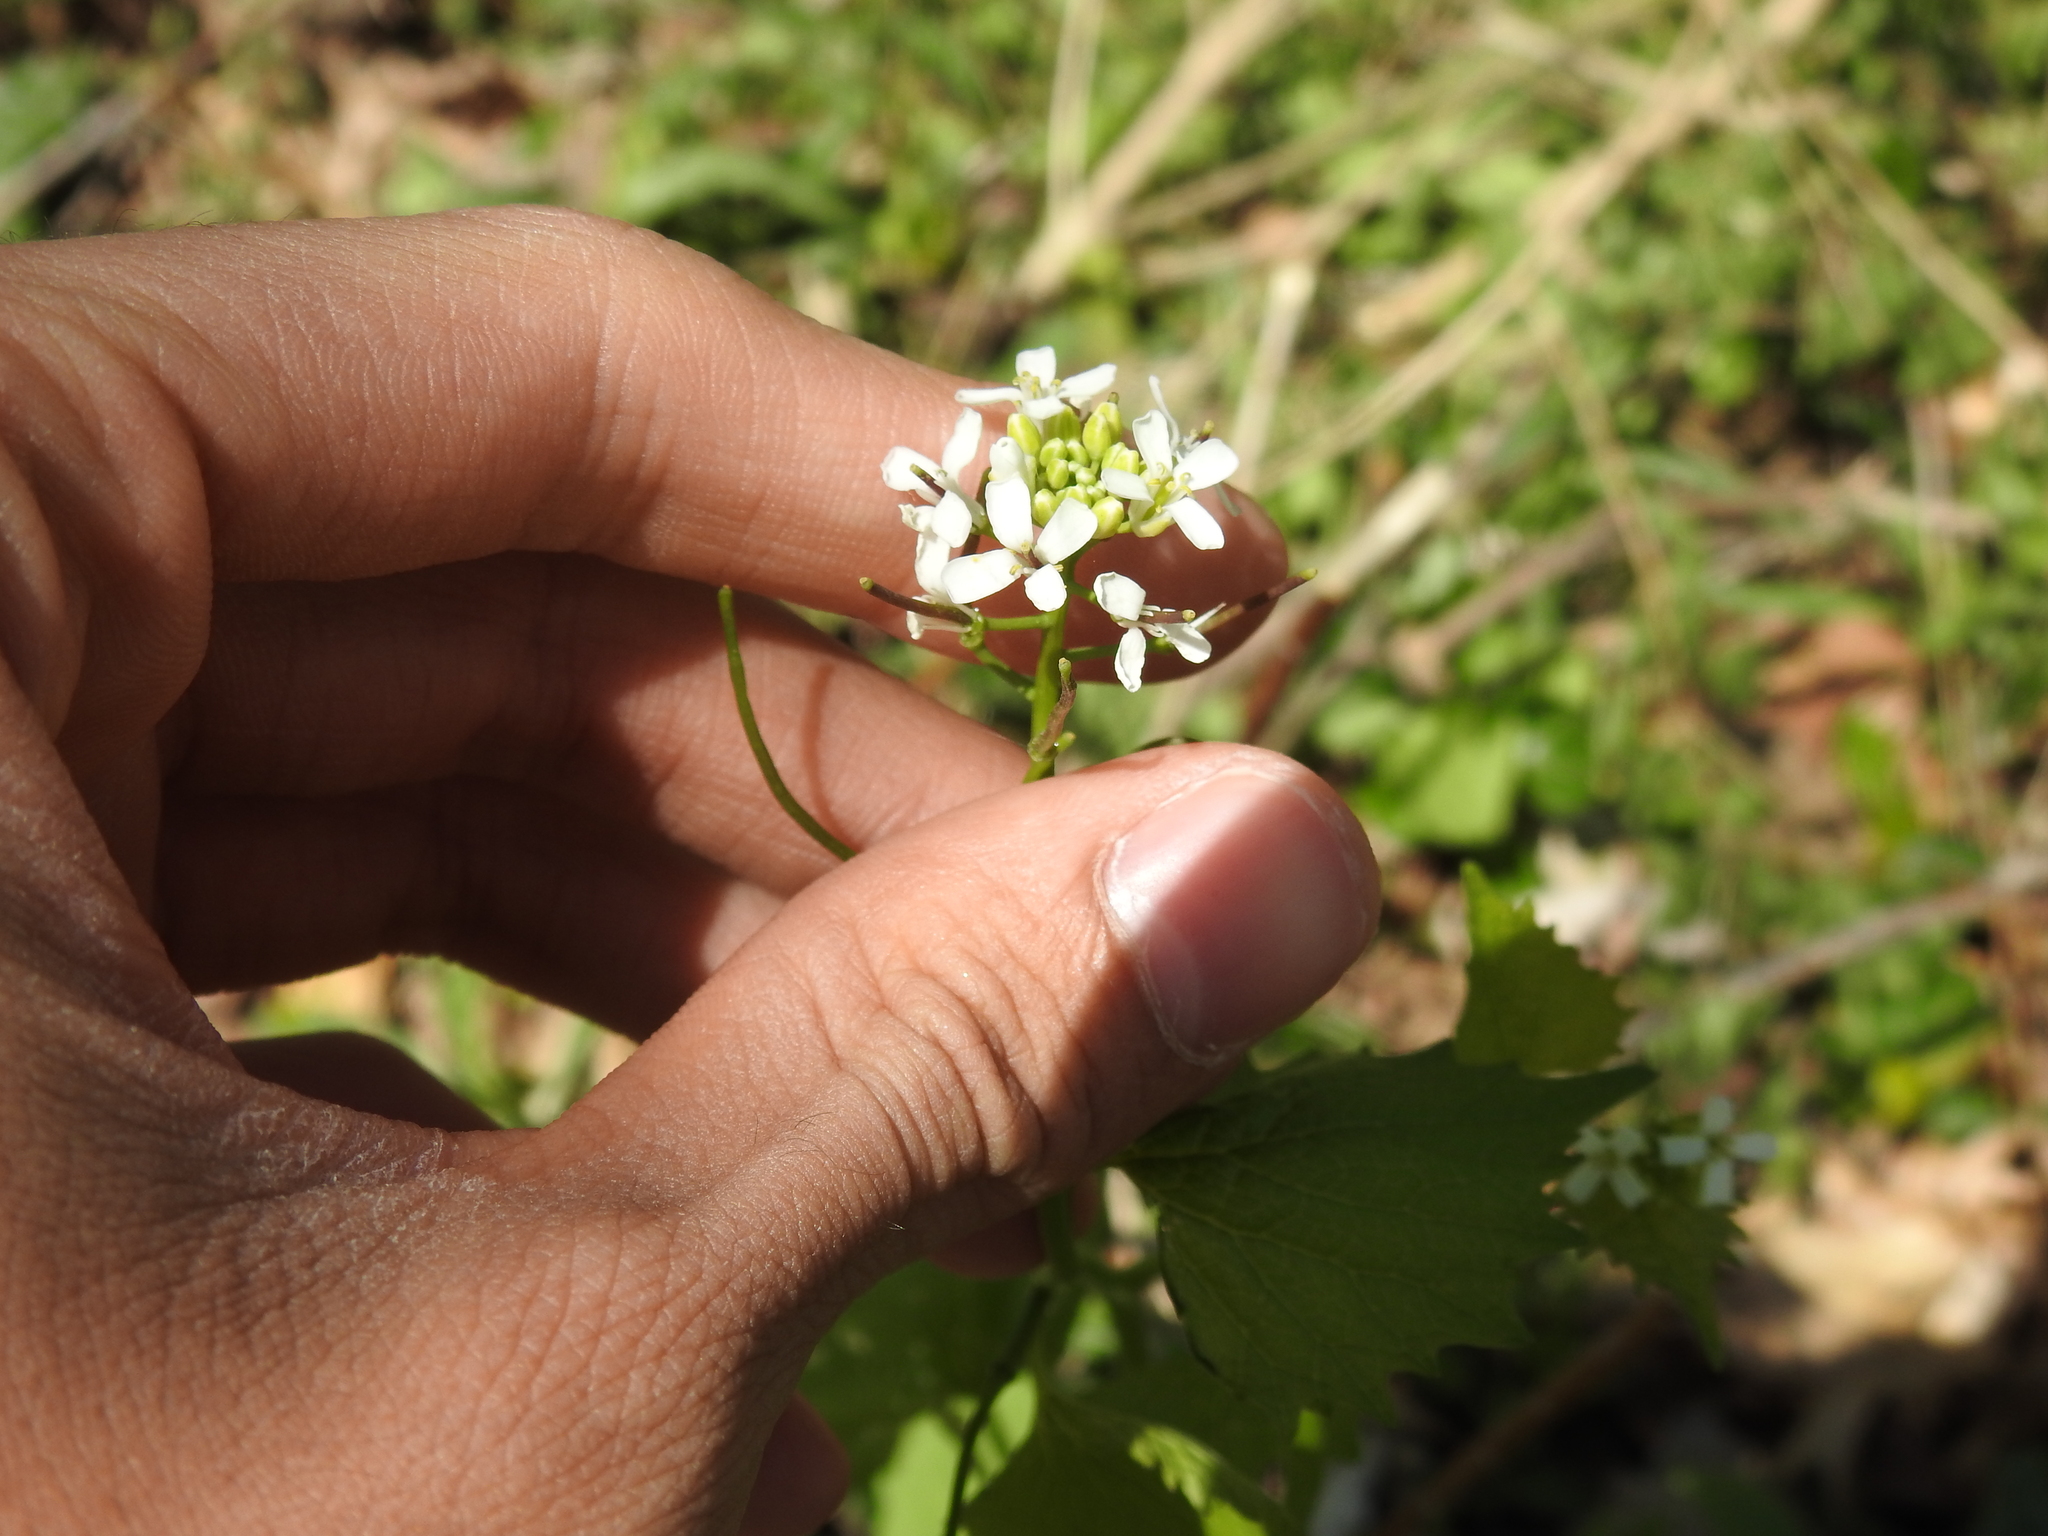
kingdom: Plantae
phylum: Tracheophyta
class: Magnoliopsida
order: Brassicales
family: Brassicaceae
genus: Alliaria
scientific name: Alliaria petiolata
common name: Garlic mustard
